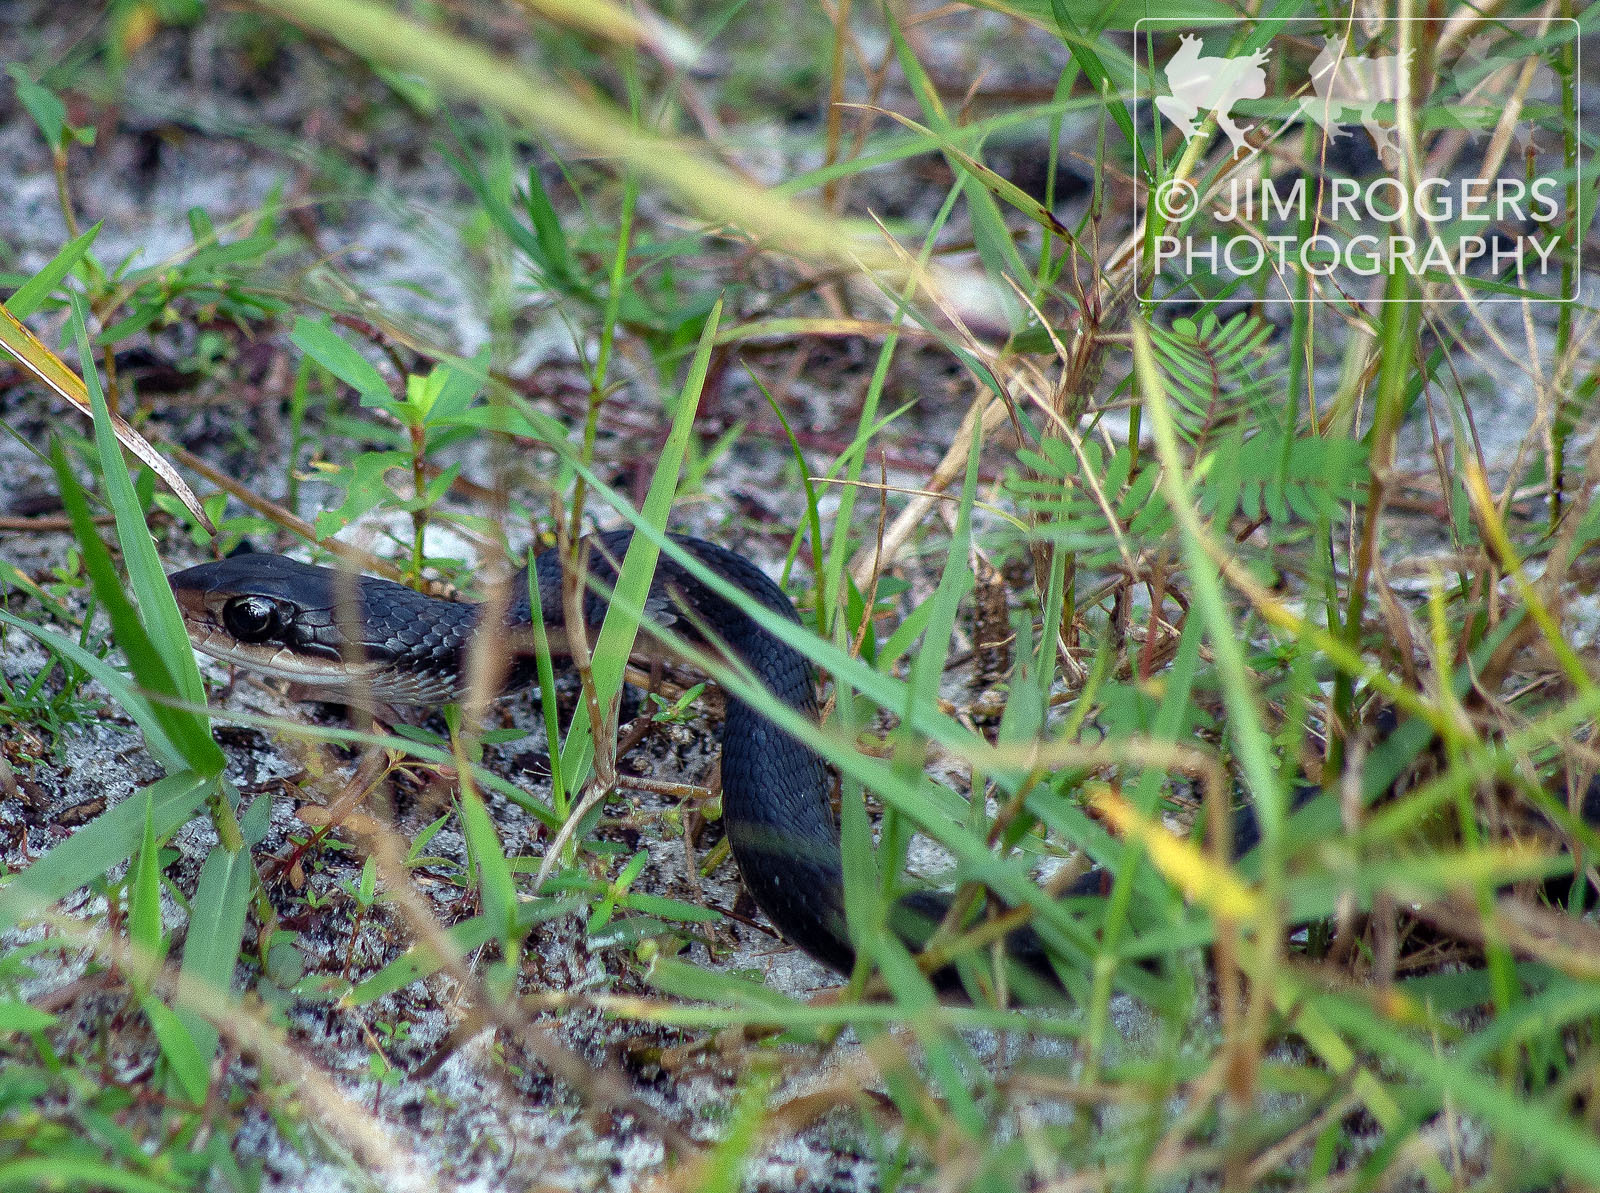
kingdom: Animalia
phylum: Chordata
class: Squamata
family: Colubridae
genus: Coluber
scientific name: Coluber constrictor
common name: Eastern racer
